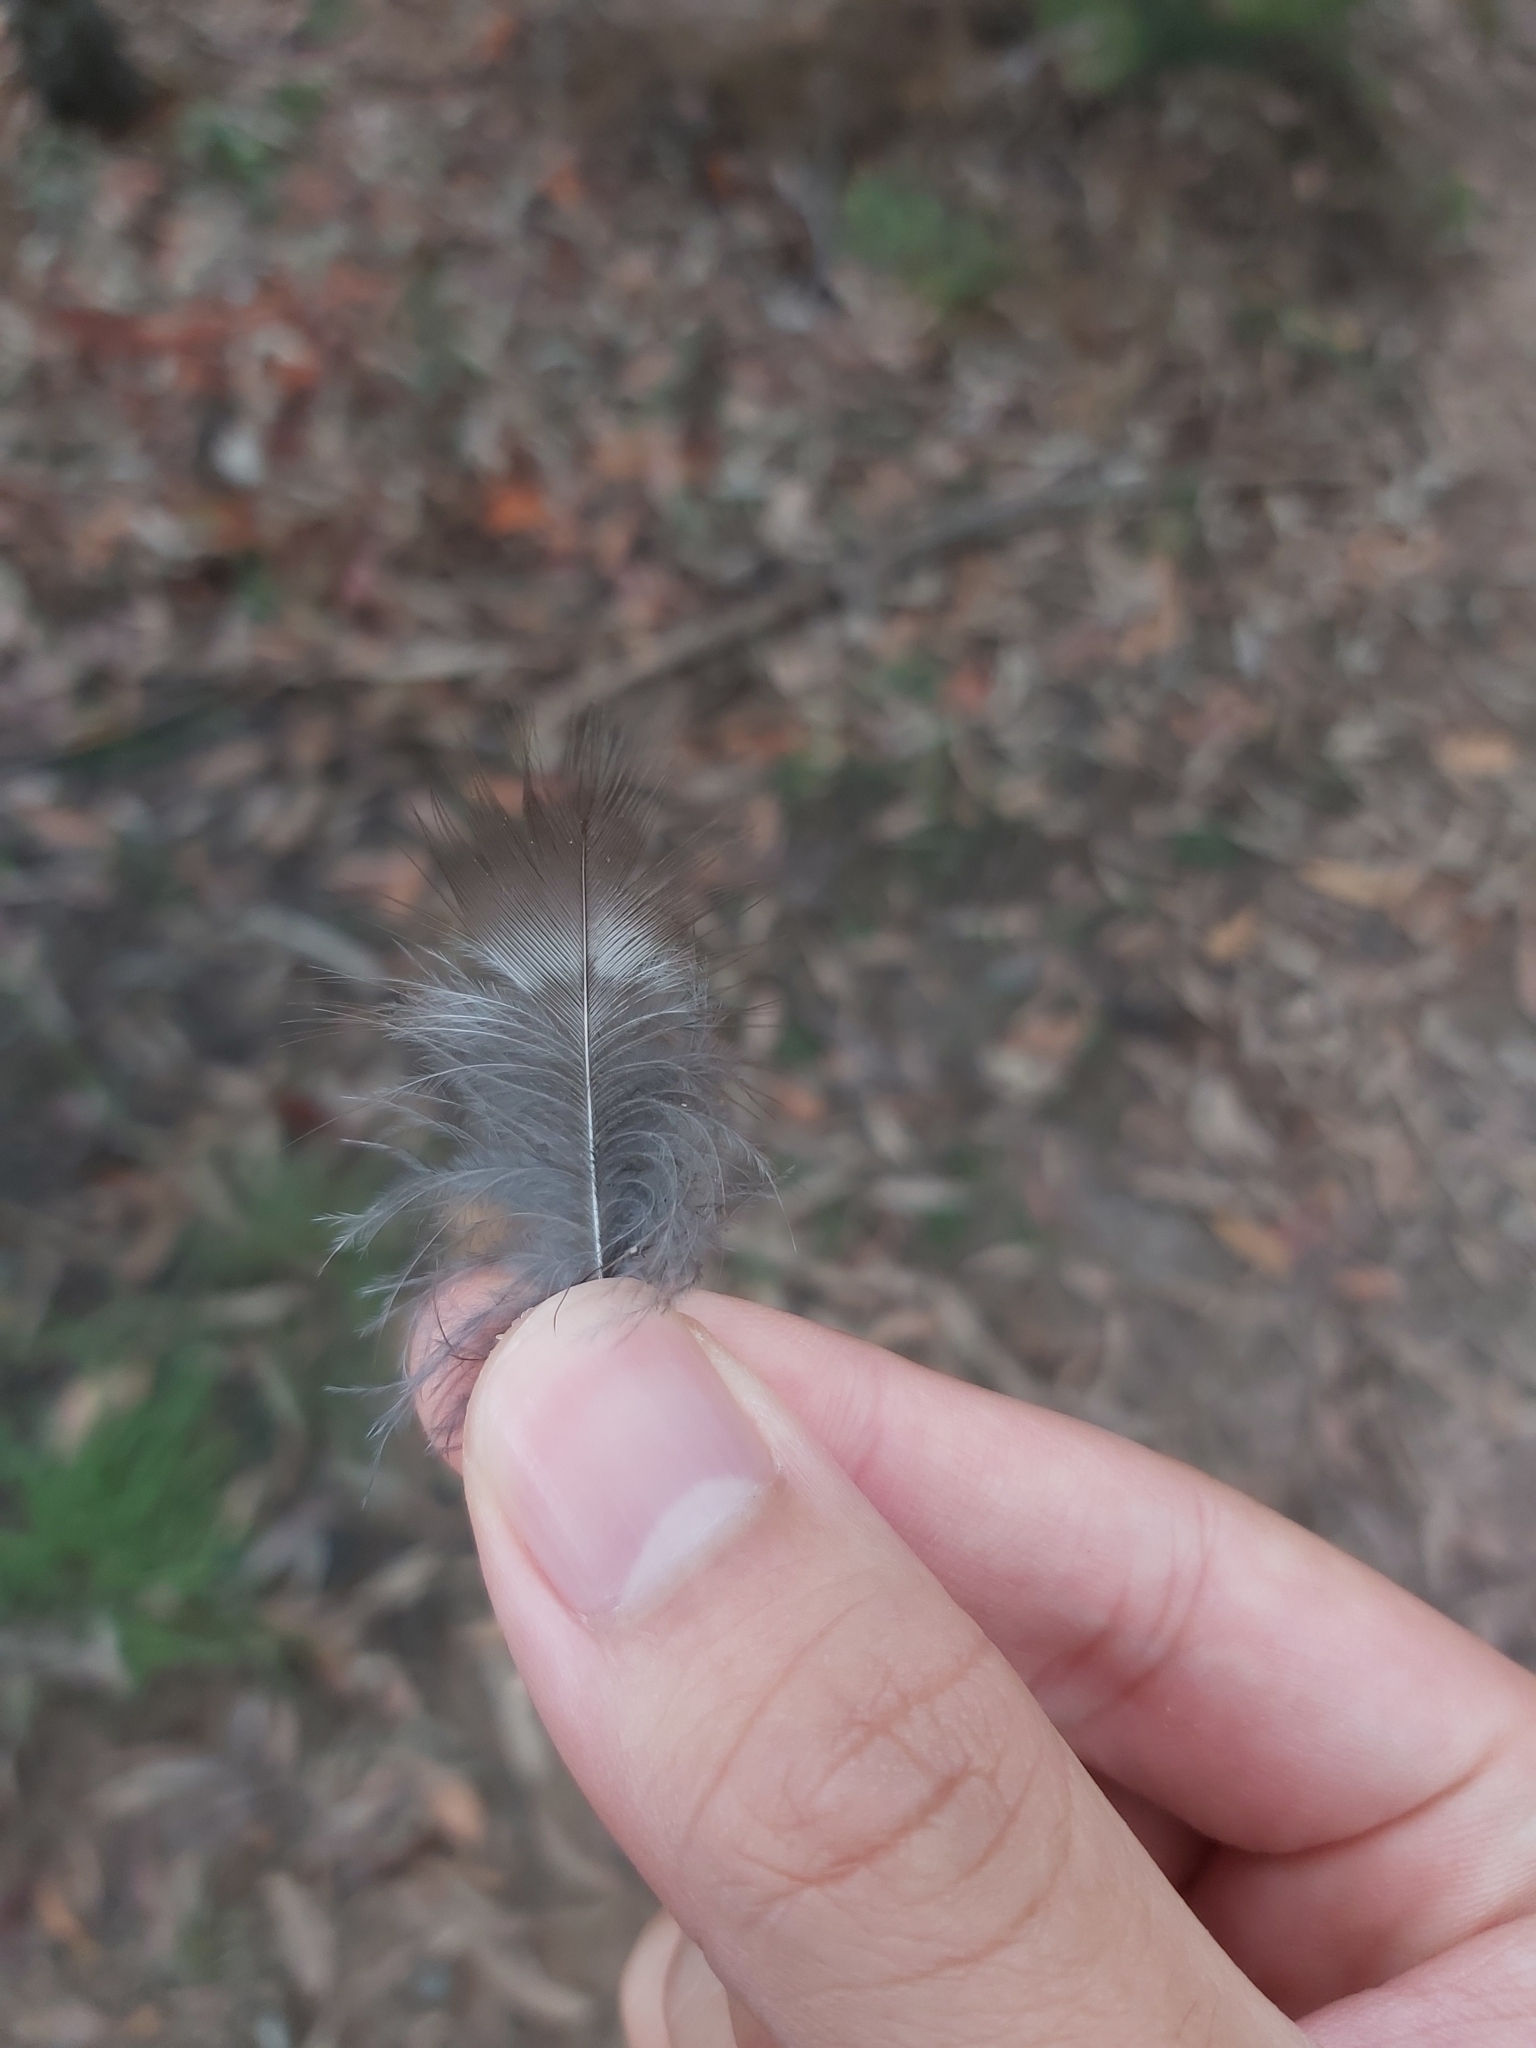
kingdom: Animalia
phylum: Chordata
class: Aves
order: Coraciiformes
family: Alcedinidae
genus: Dacelo
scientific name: Dacelo novaeguineae
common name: Laughing kookaburra
